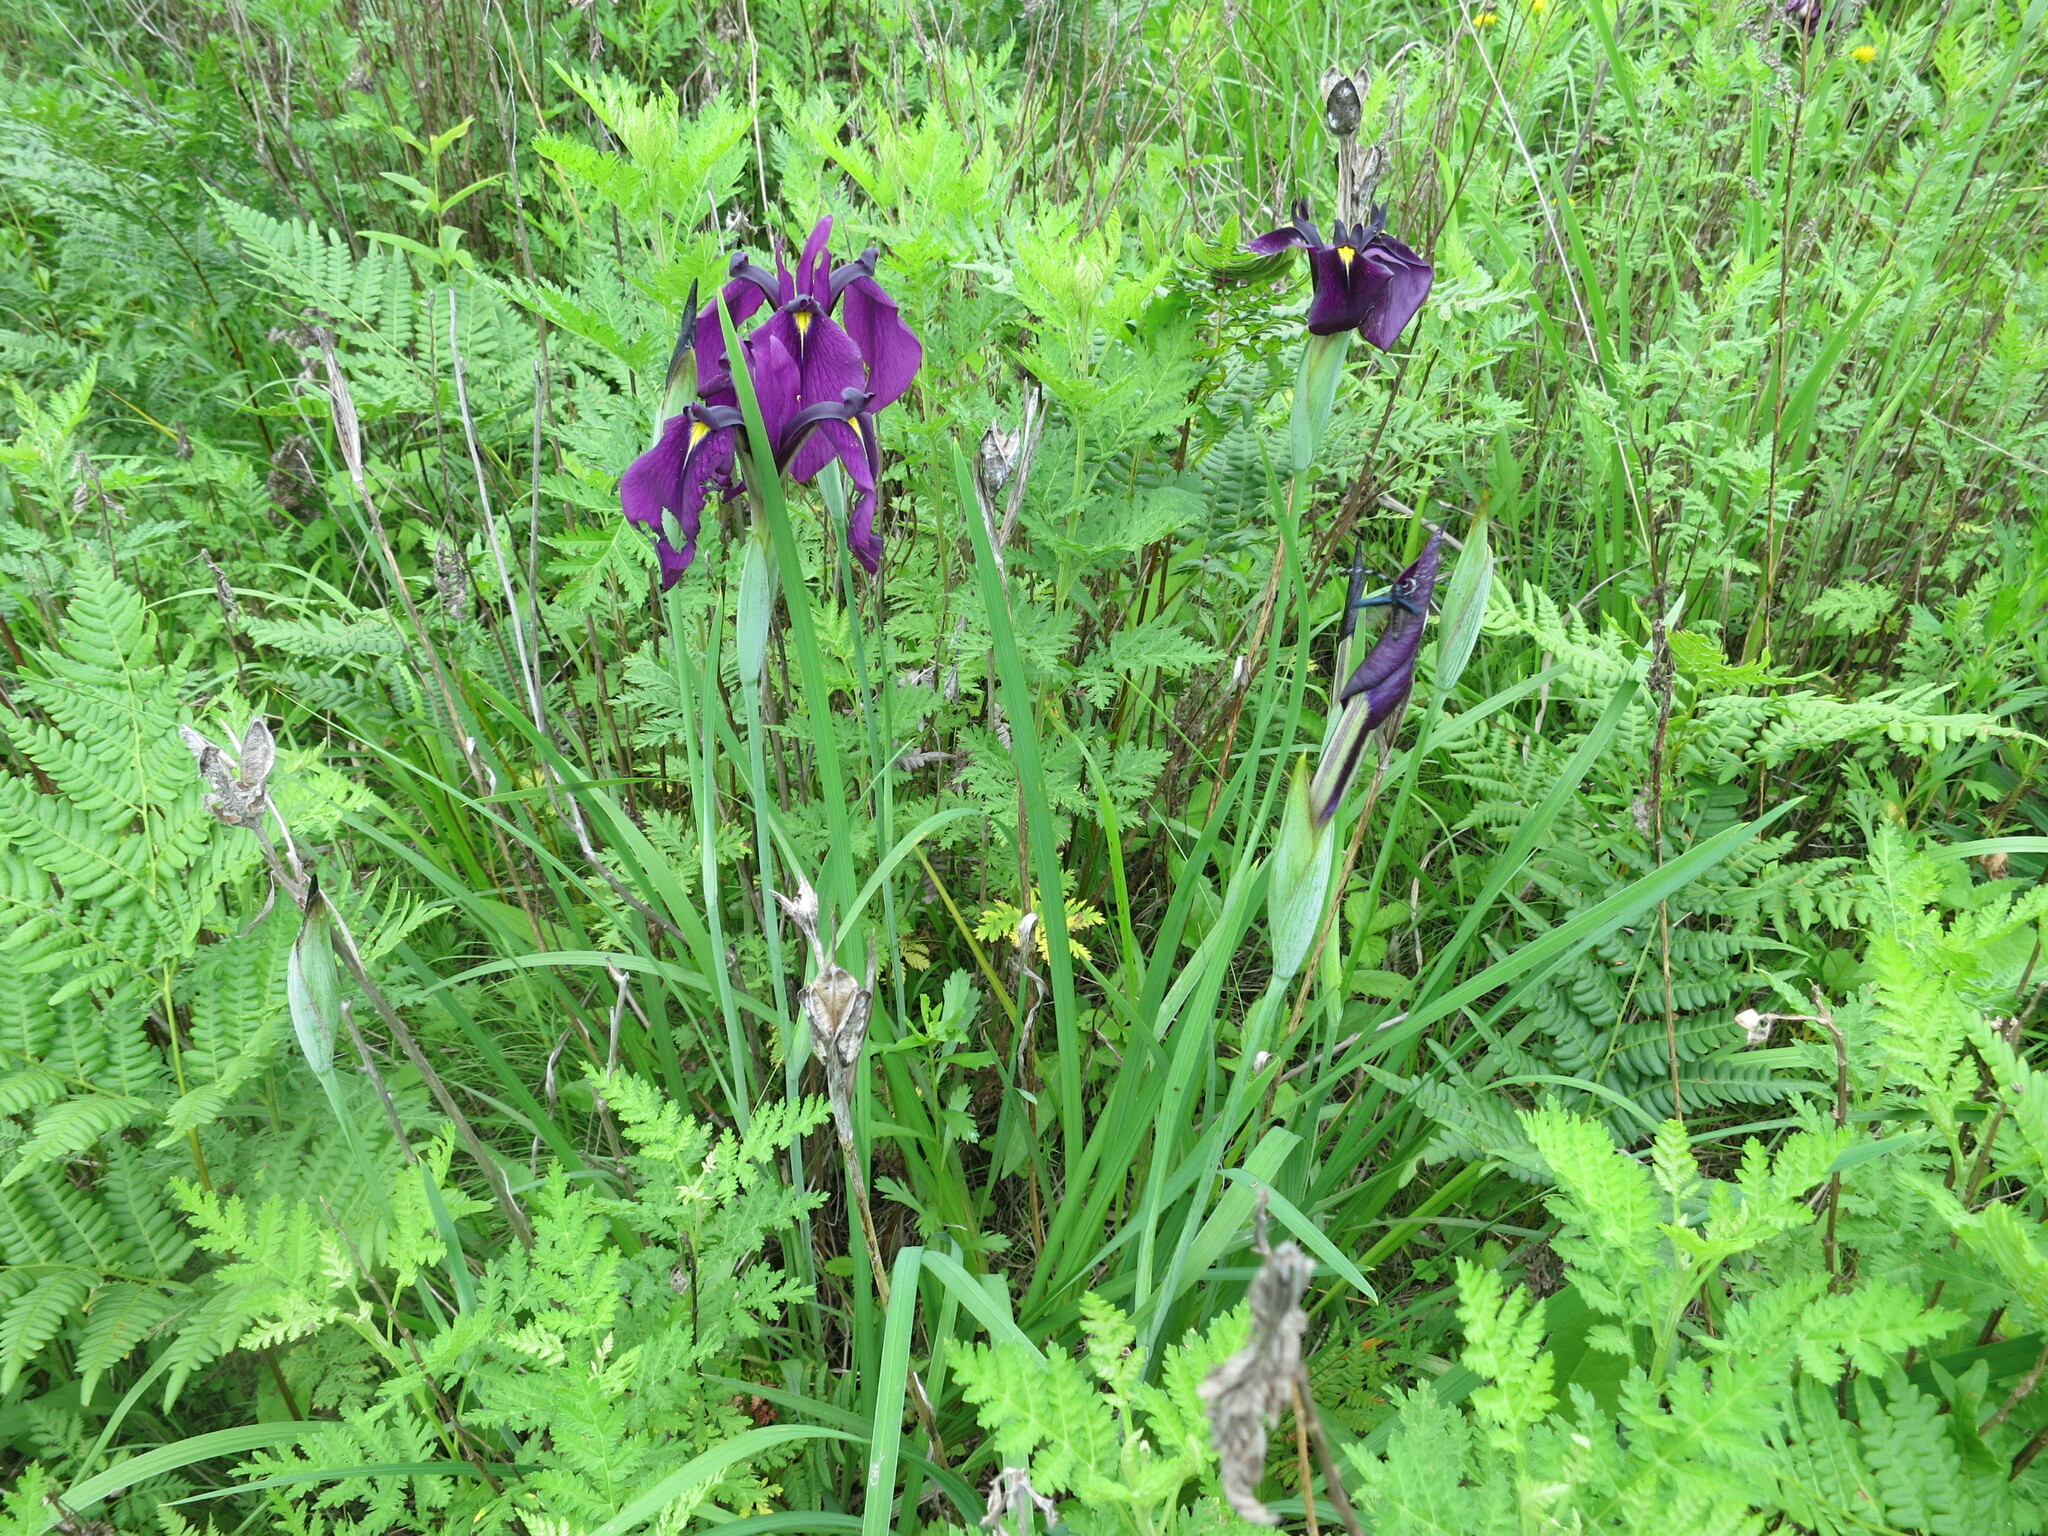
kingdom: Plantae
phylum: Tracheophyta
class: Liliopsida
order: Asparagales
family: Iridaceae
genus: Iris
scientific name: Iris ensata
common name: Beaked iris
